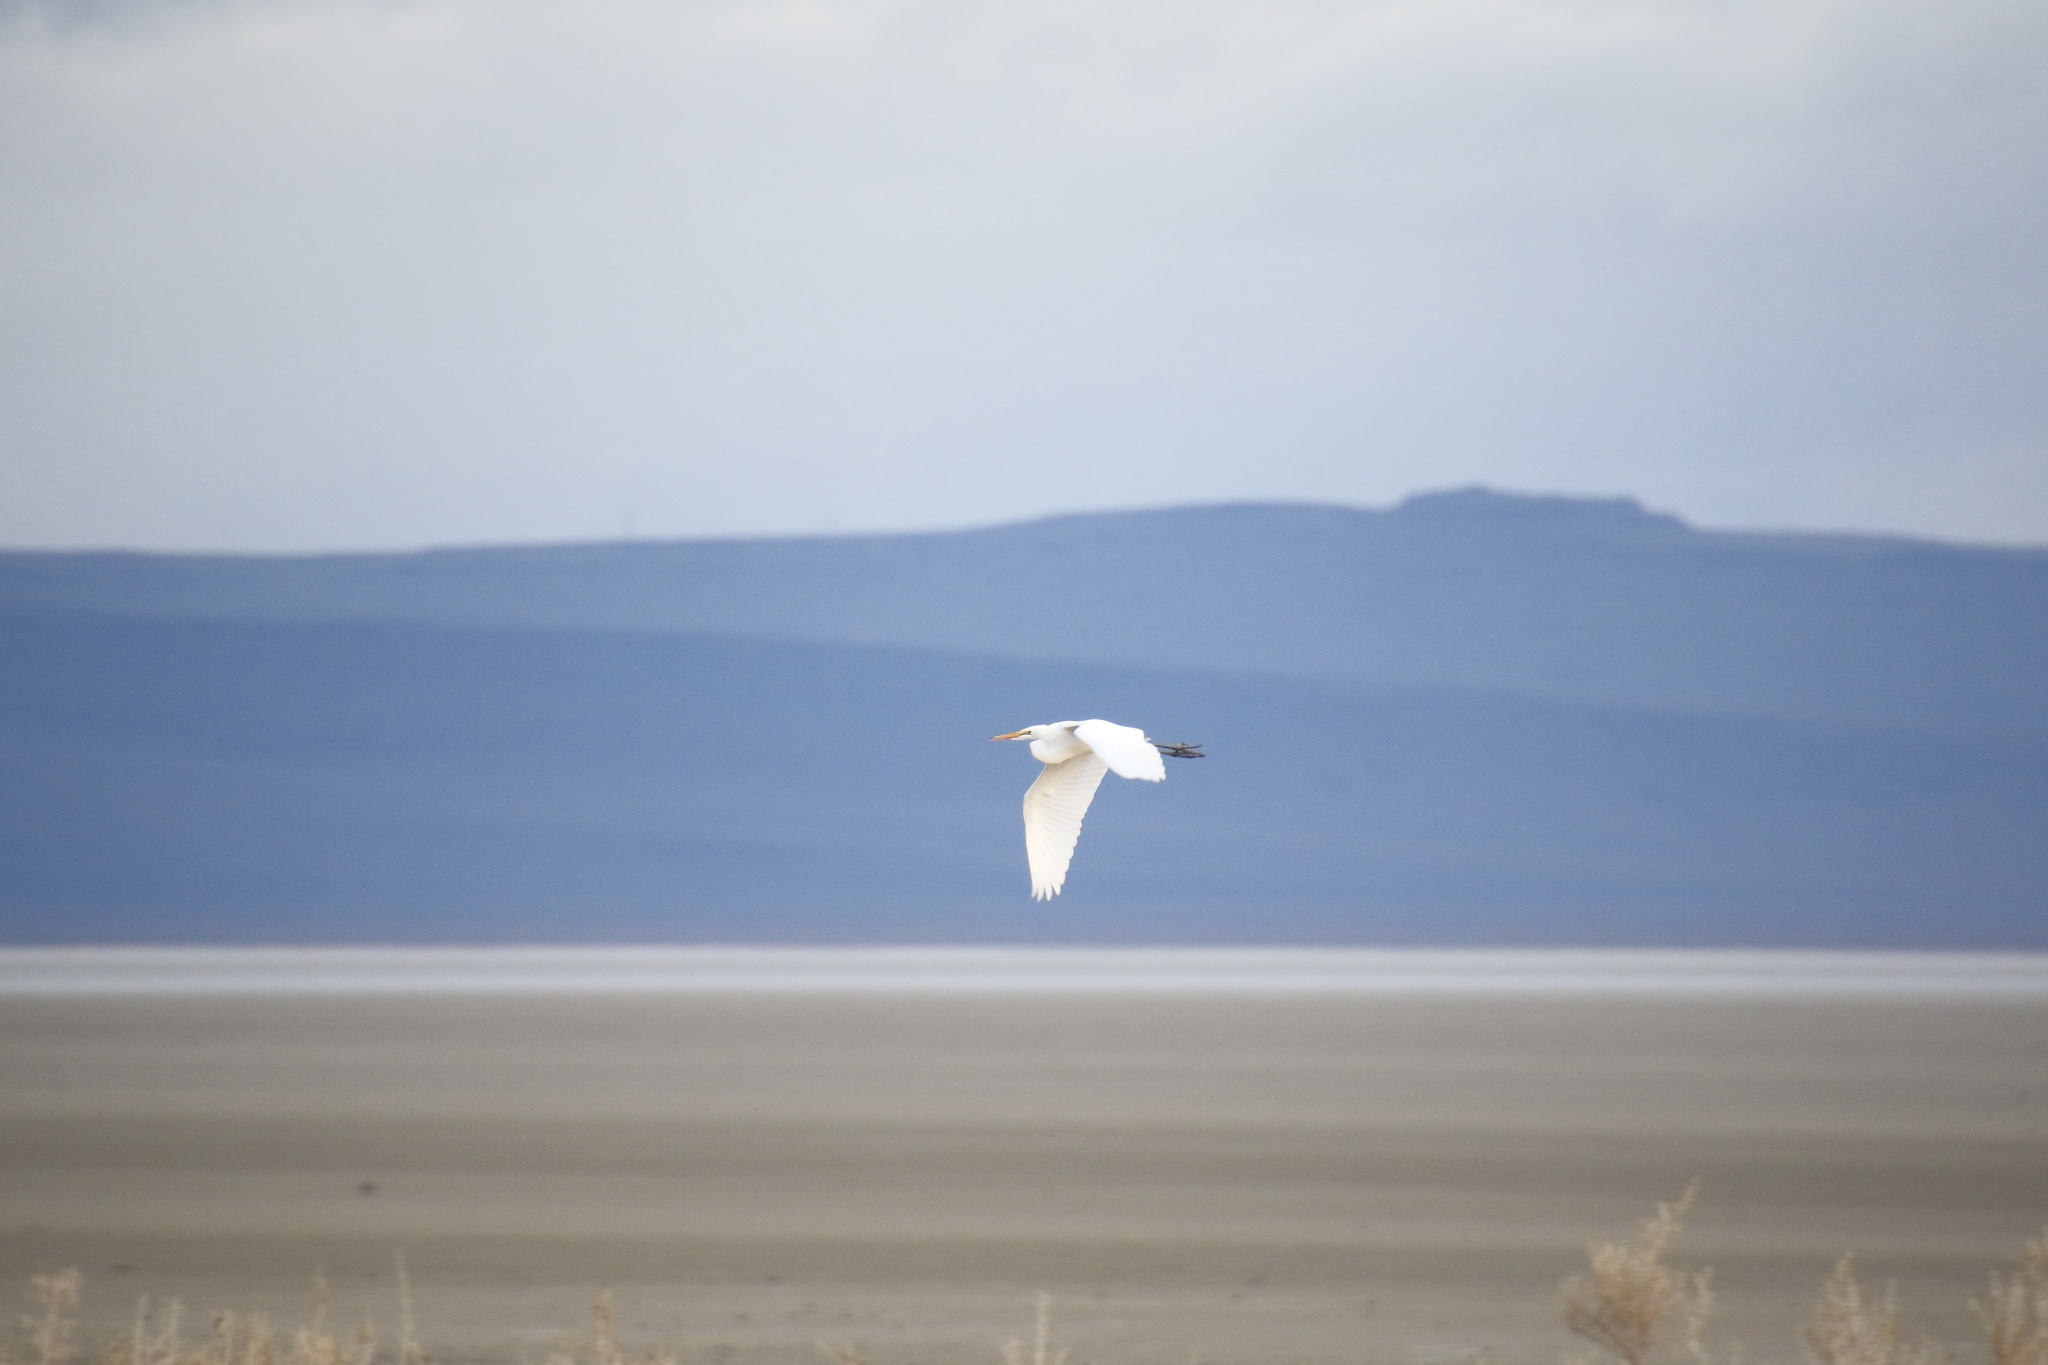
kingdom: Animalia
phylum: Chordata
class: Aves
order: Pelecaniformes
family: Ardeidae
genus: Ardea
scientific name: Ardea alba
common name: Great egret
